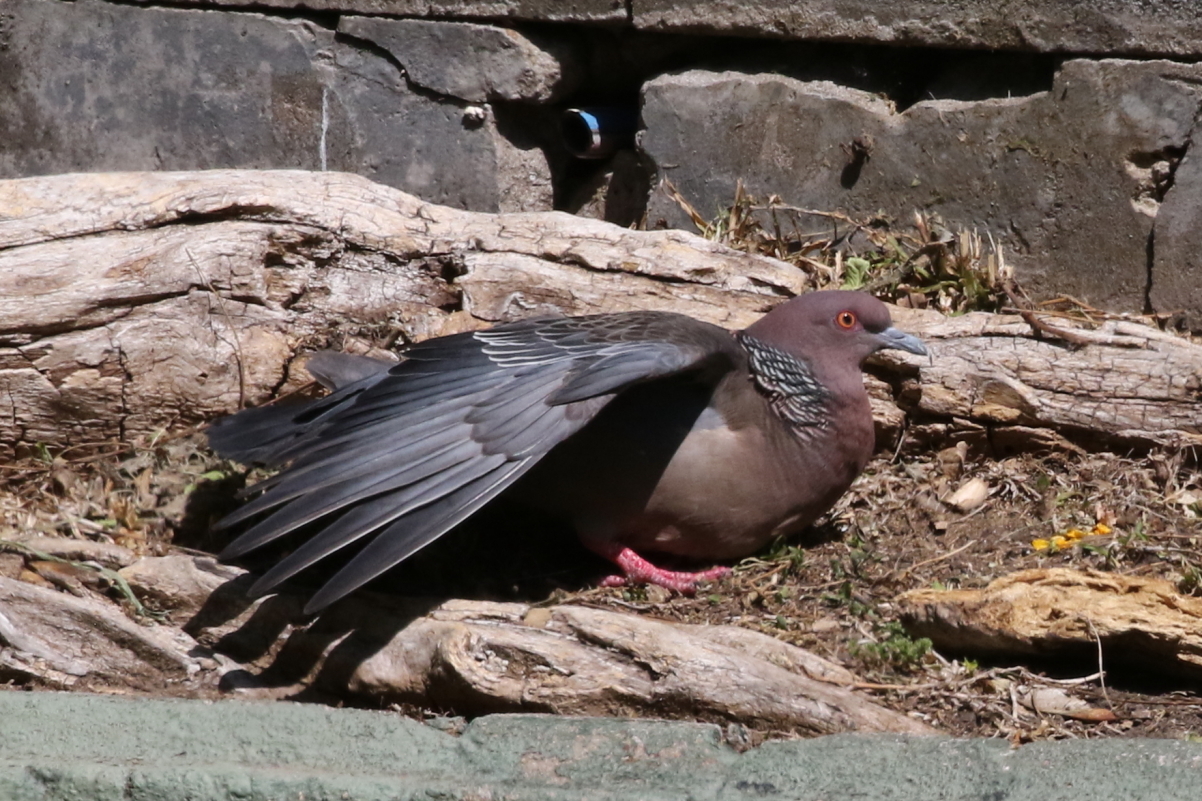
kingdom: Animalia
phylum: Chordata
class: Aves
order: Columbiformes
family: Columbidae
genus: Patagioenas
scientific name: Patagioenas picazuro
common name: Picazuro pigeon
